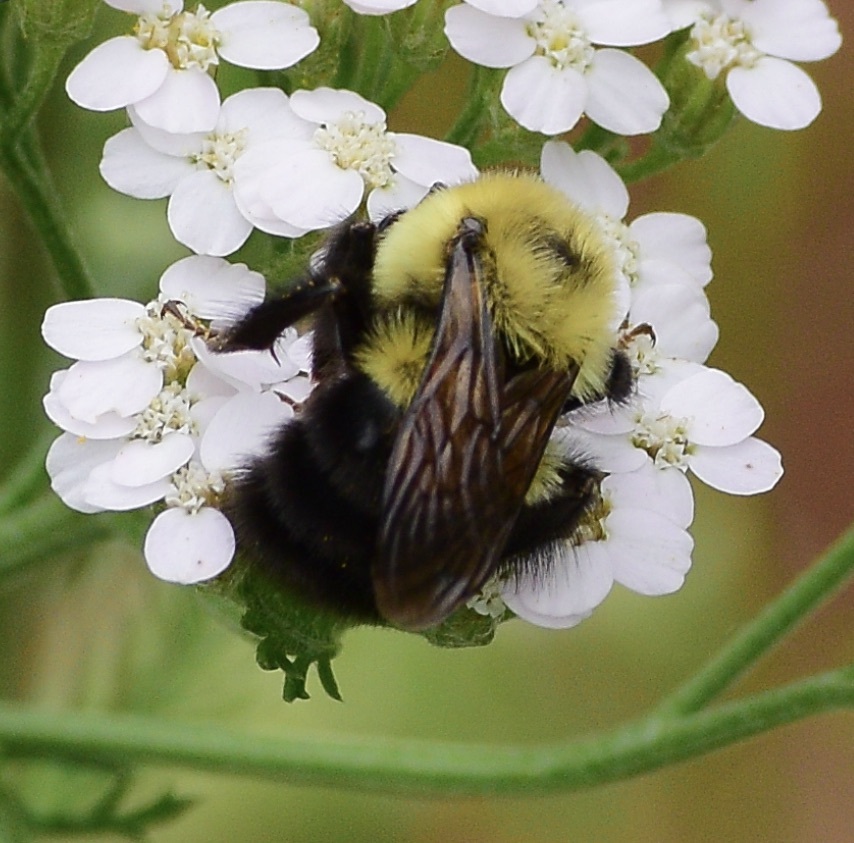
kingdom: Animalia
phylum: Arthropoda
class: Insecta
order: Hymenoptera
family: Apidae
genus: Bombus
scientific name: Bombus bimaculatus
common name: Two-spotted bumble bee
